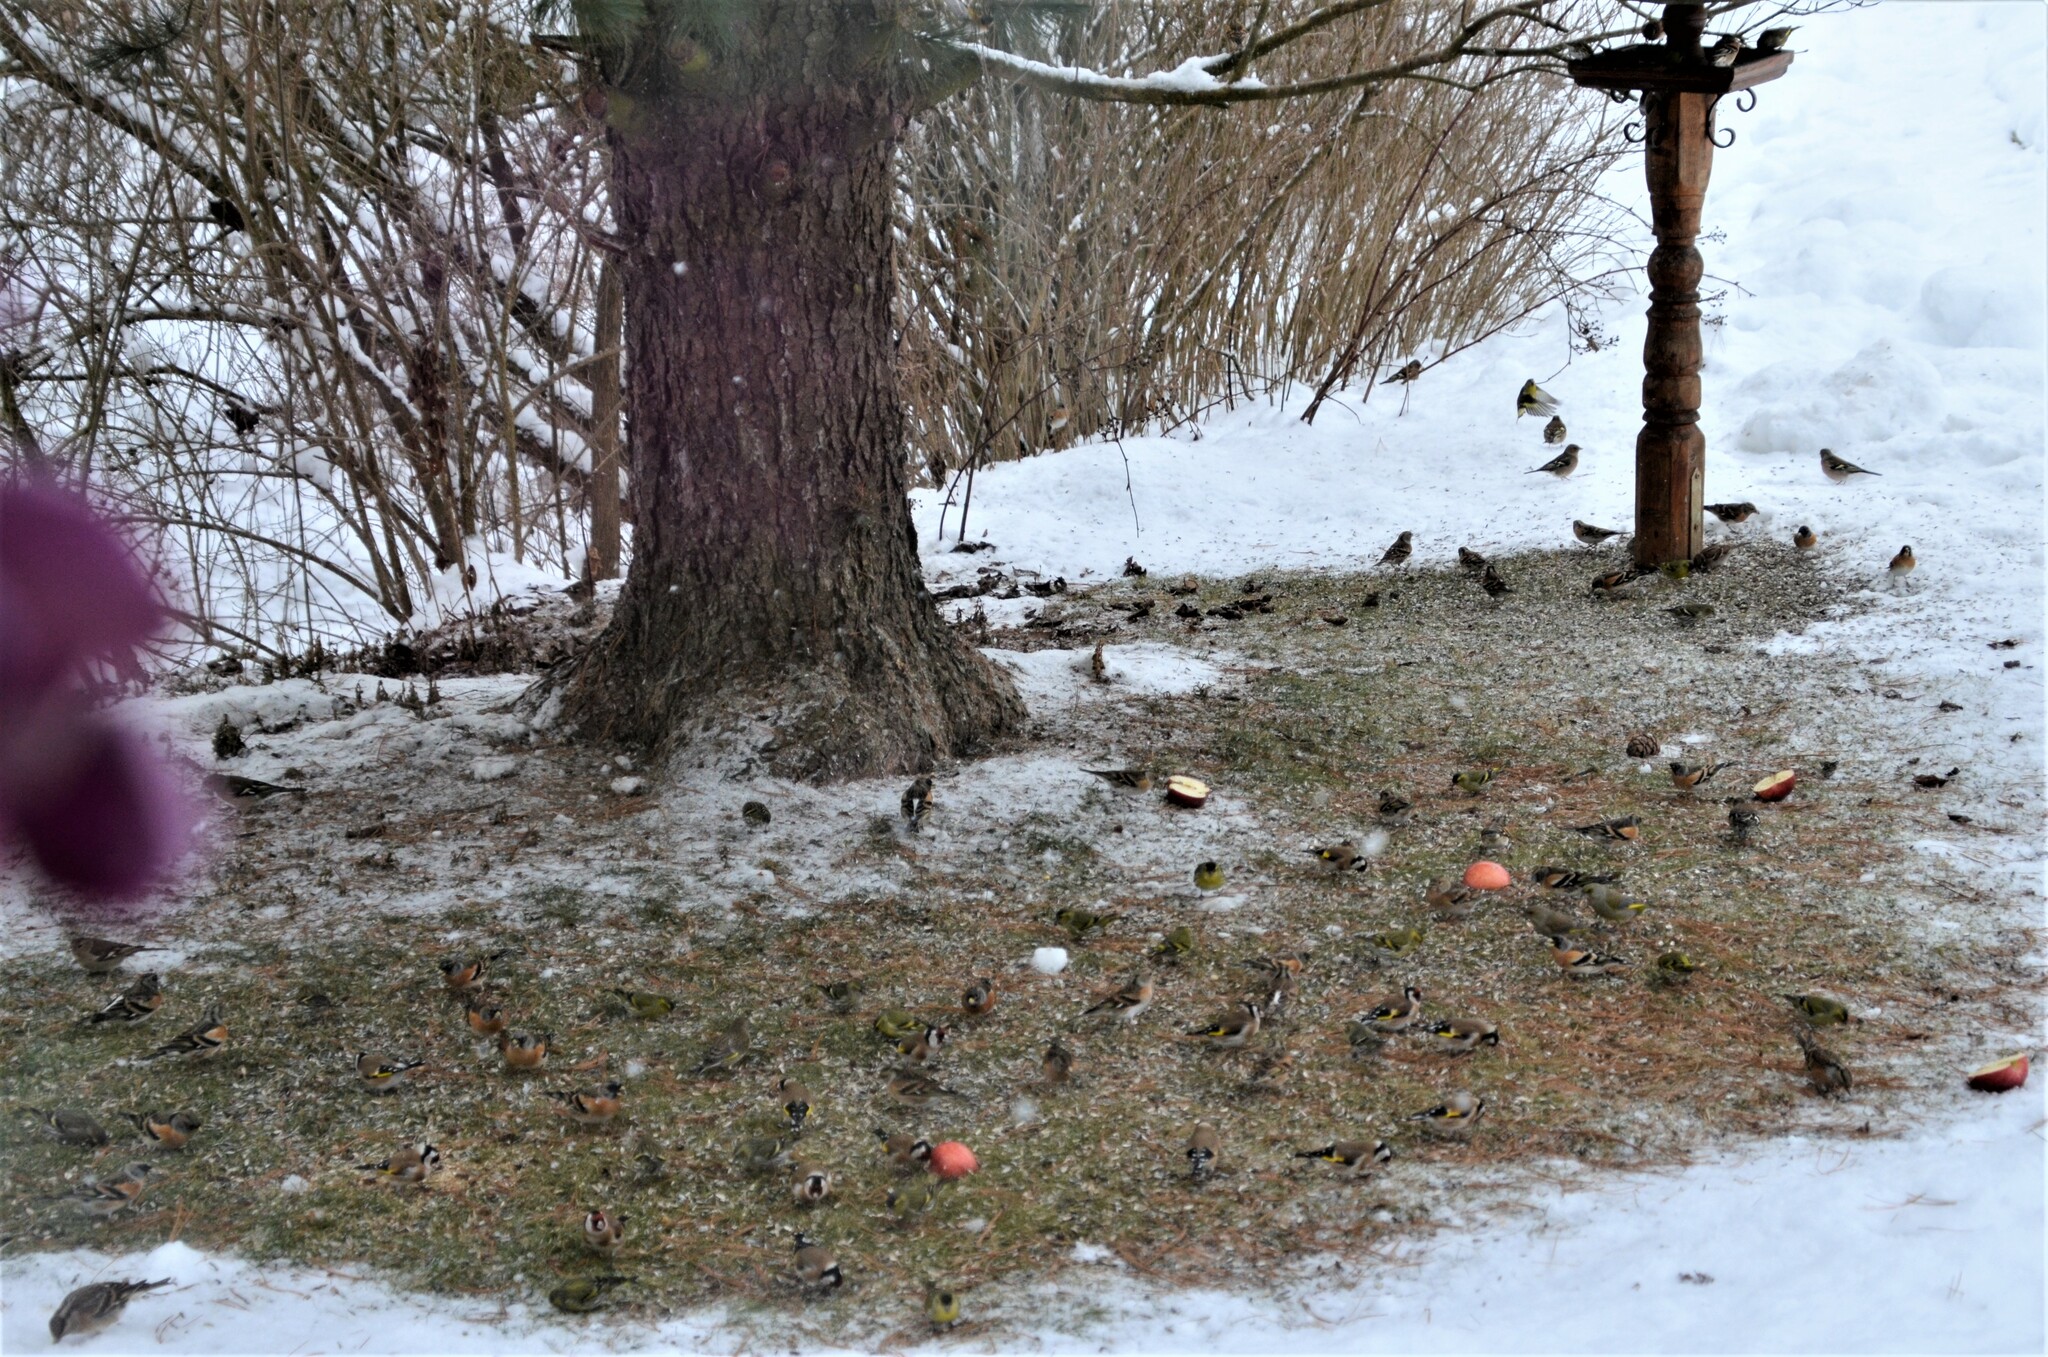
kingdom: Animalia
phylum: Chordata
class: Aves
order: Passeriformes
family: Fringillidae
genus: Fringilla
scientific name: Fringilla montifringilla
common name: Brambling
